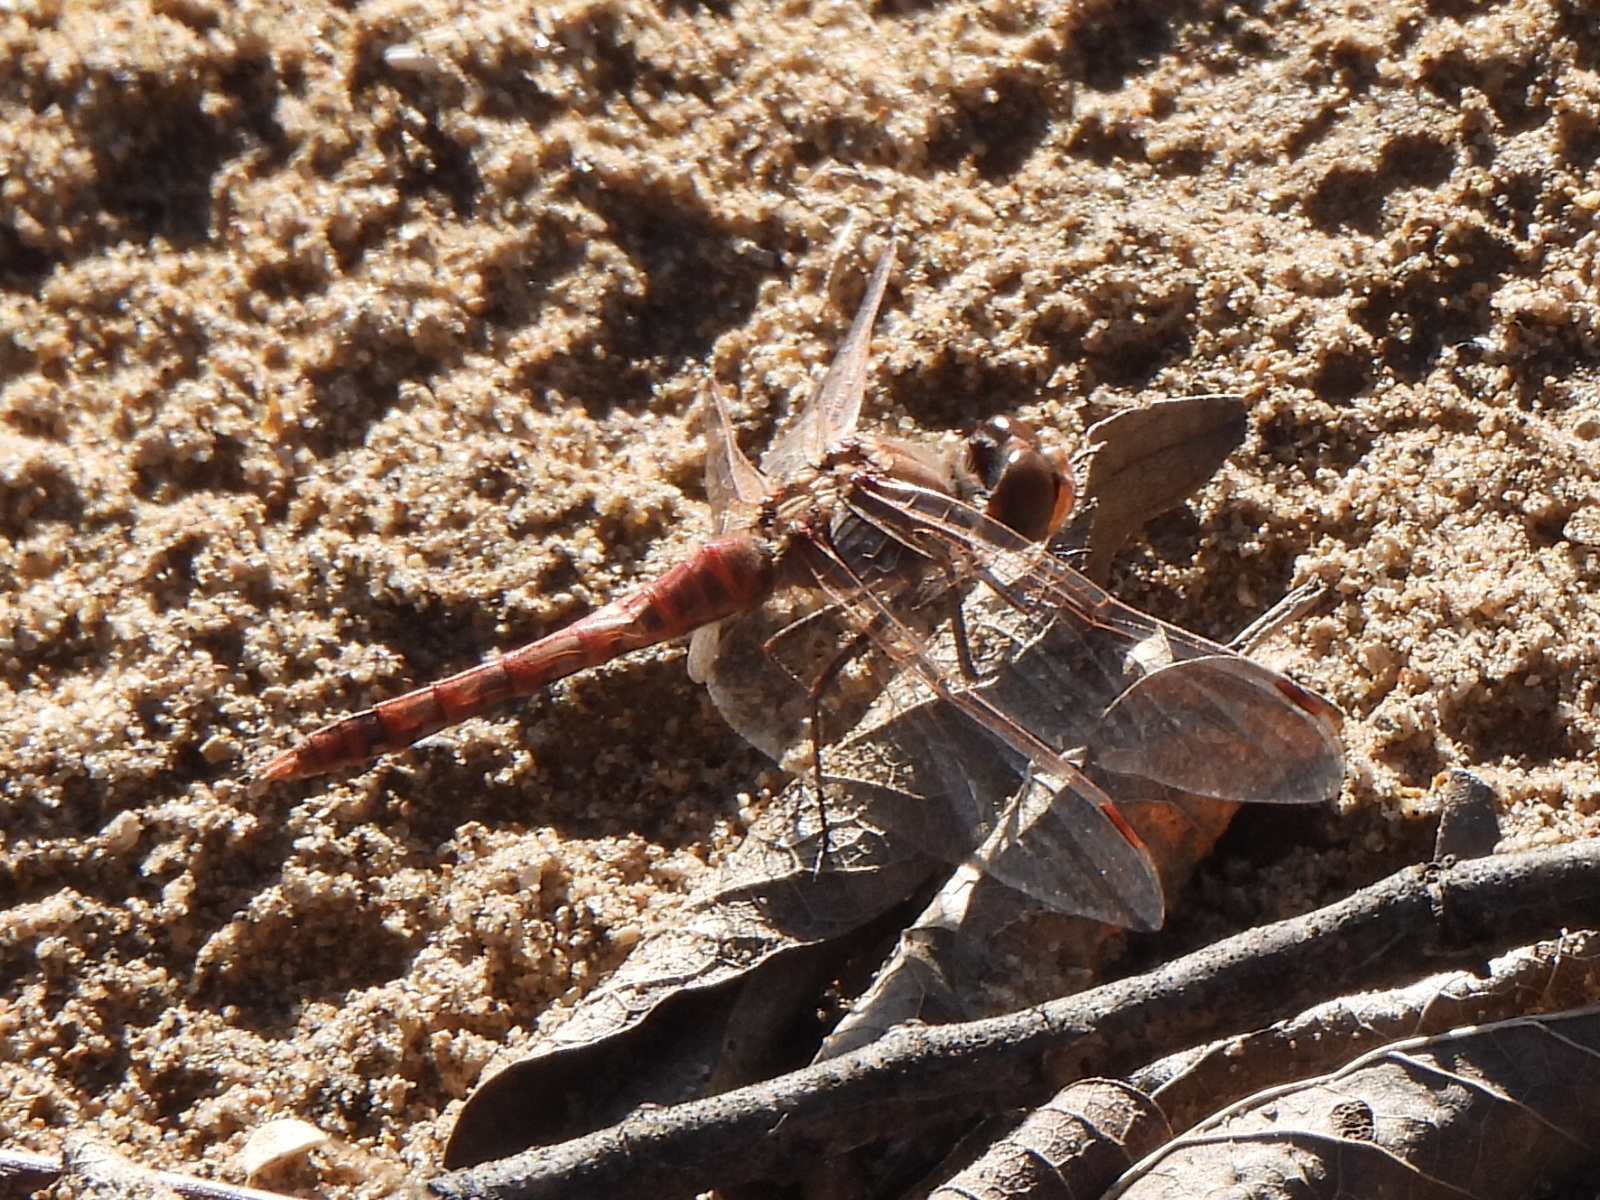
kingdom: Animalia
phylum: Arthropoda
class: Insecta
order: Odonata
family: Libellulidae
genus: Sympetrum
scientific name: Sympetrum corruptum
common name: Variegated meadowhawk
